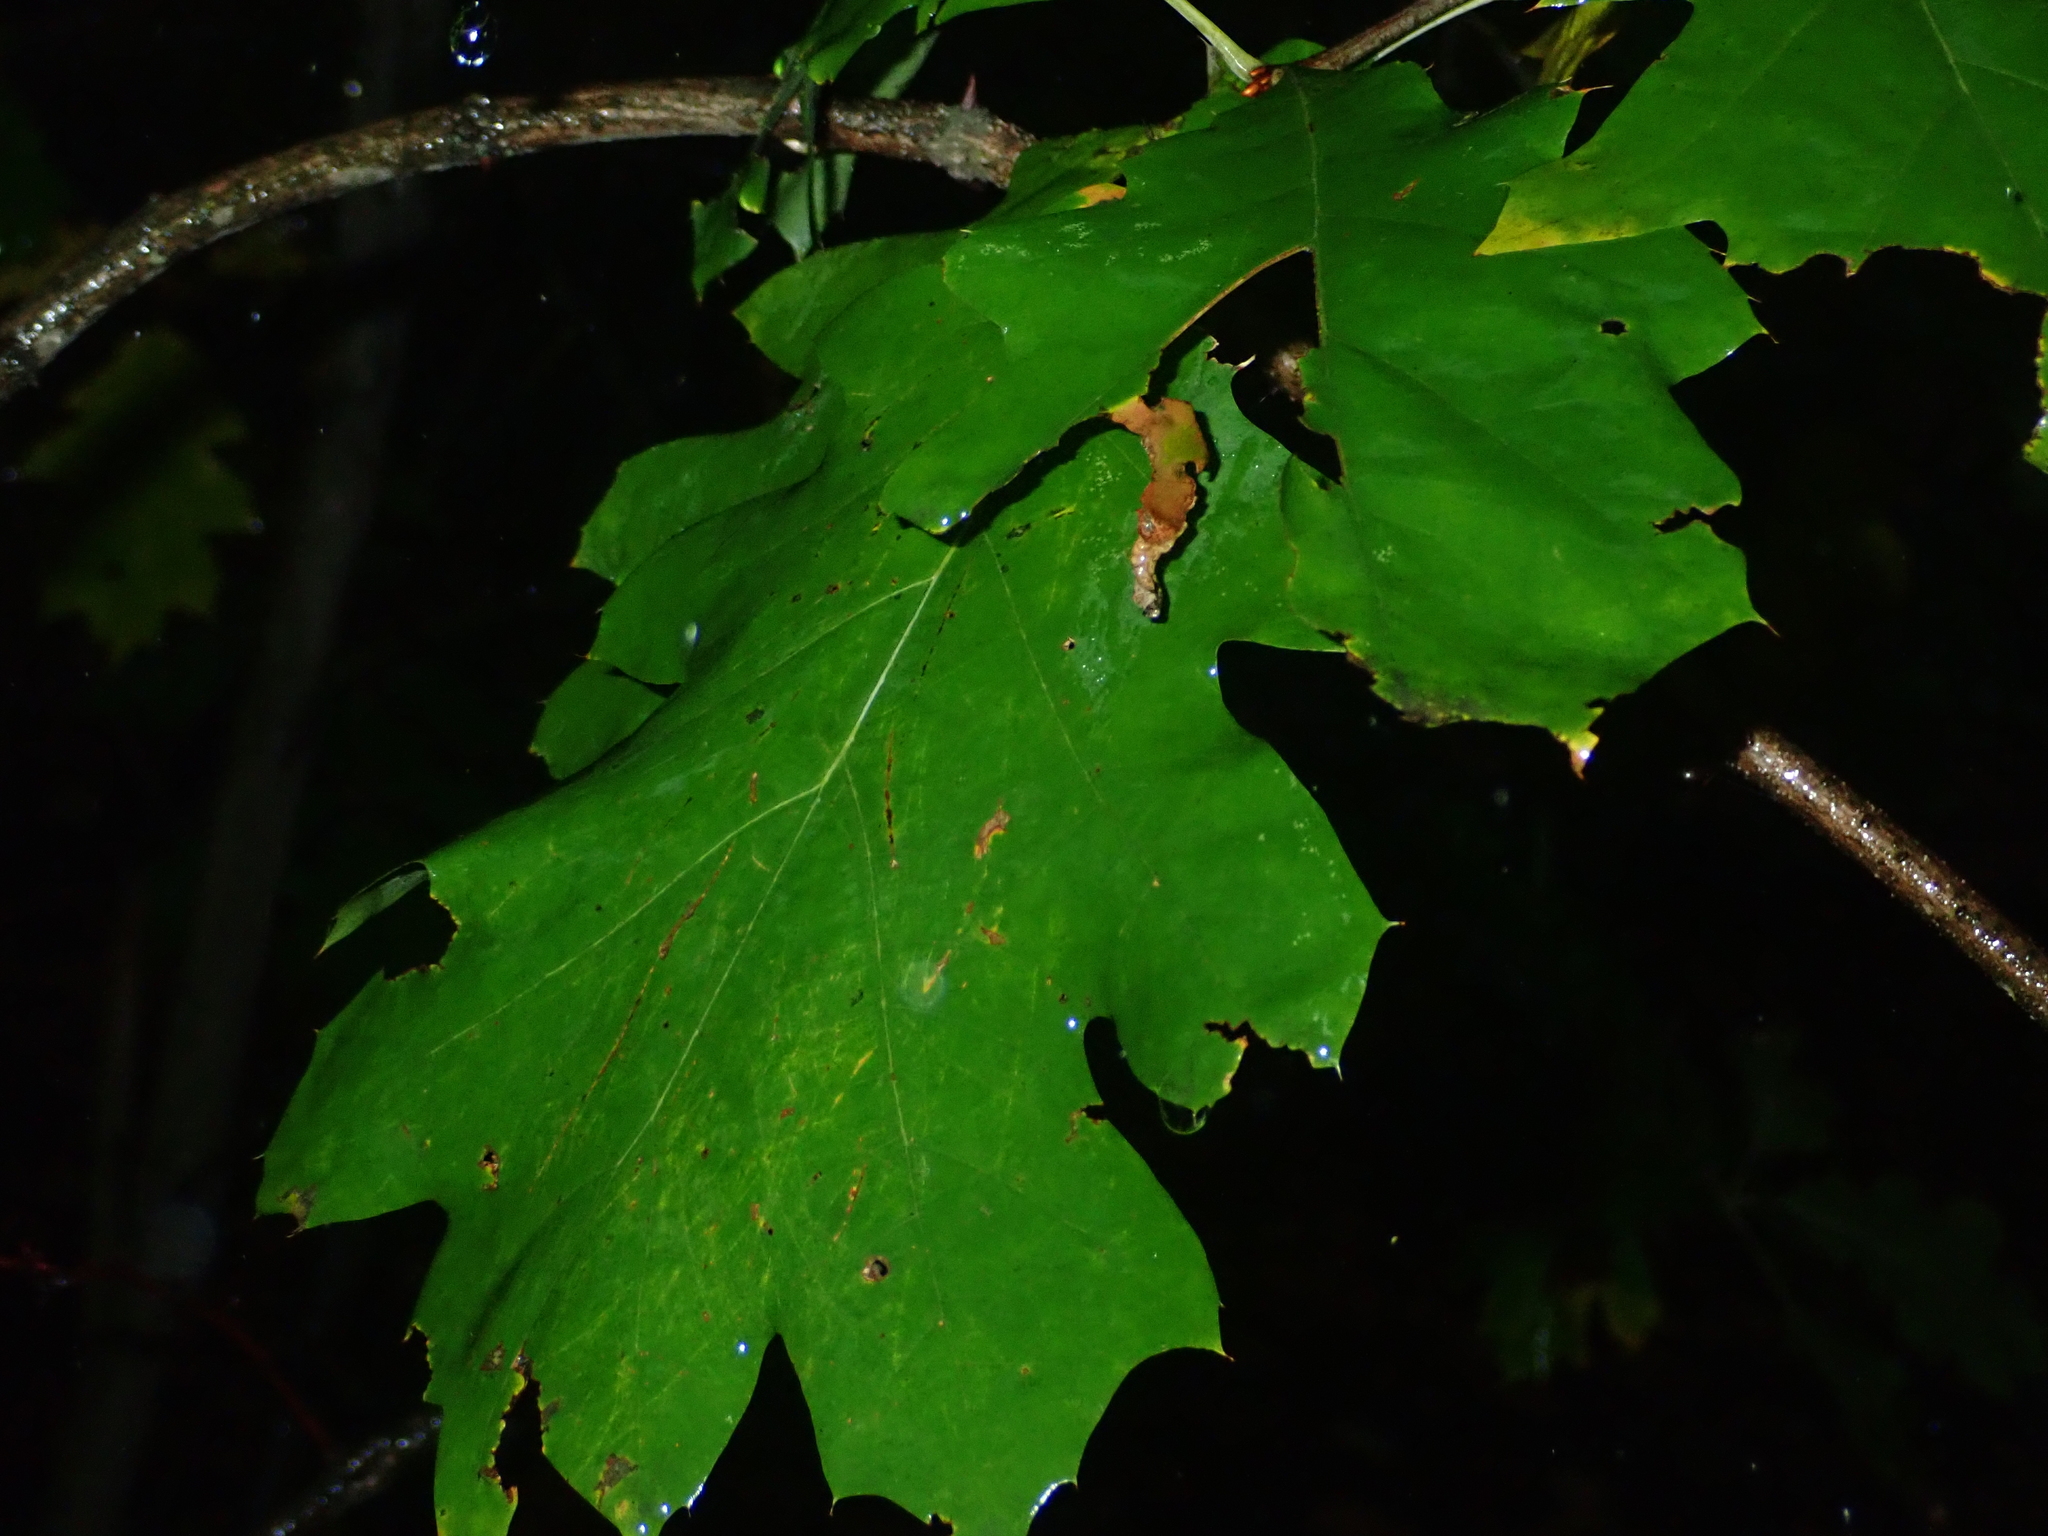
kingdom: Plantae
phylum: Tracheophyta
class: Magnoliopsida
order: Fagales
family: Fagaceae
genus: Quercus
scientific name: Quercus rubra
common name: Red oak
